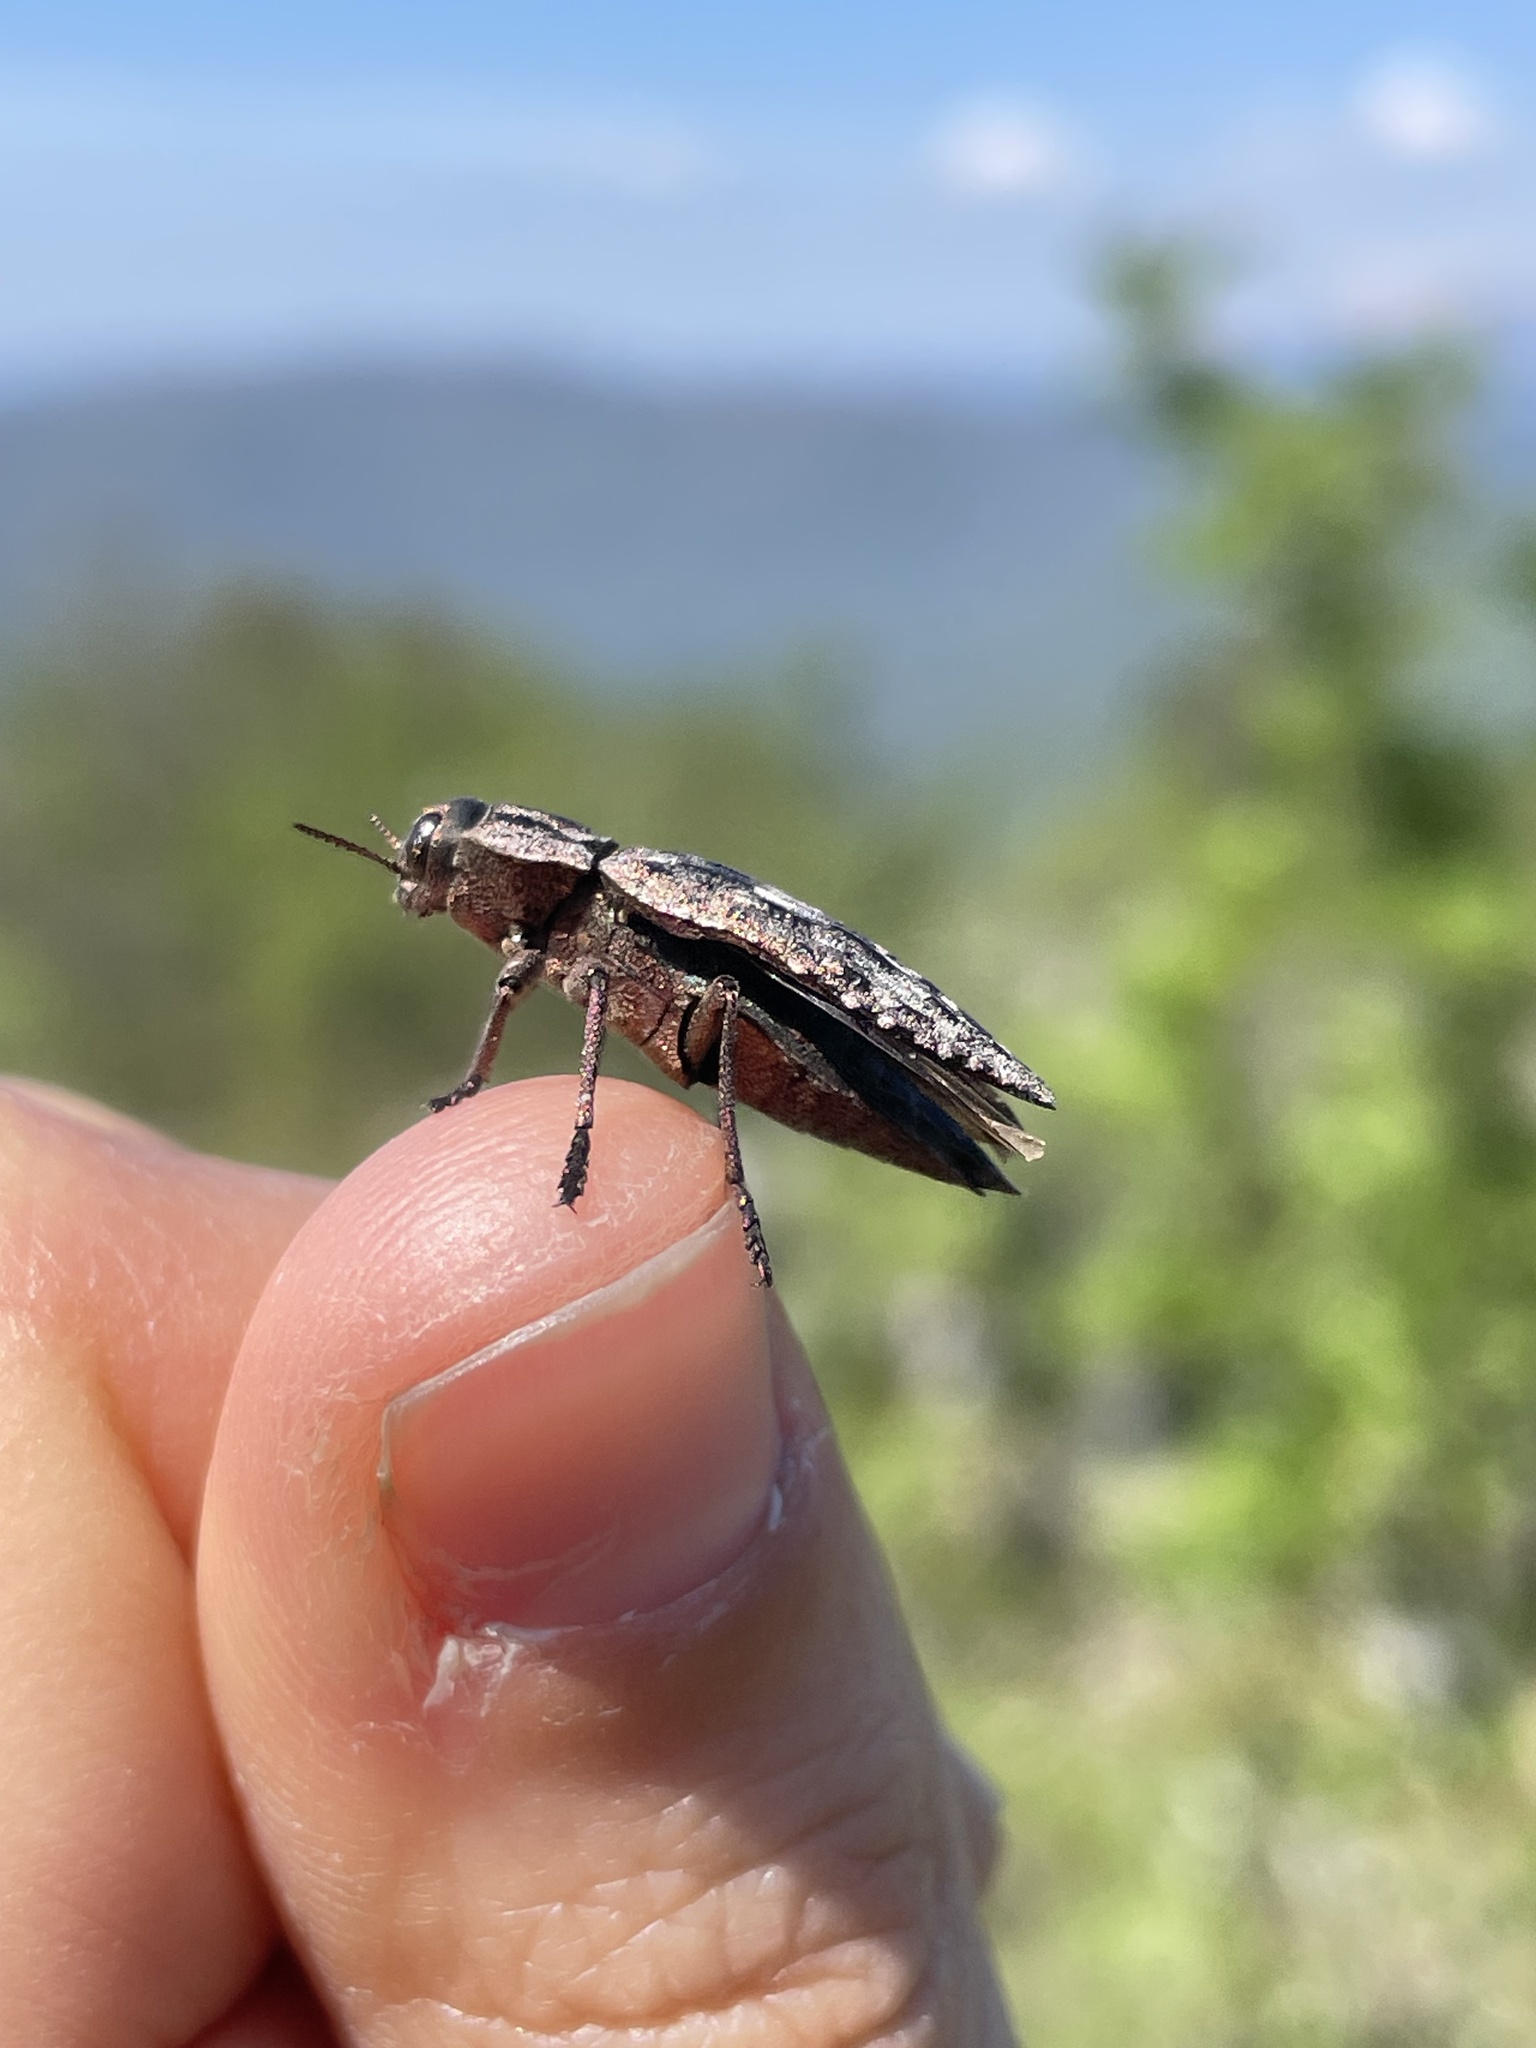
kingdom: Animalia
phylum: Arthropoda
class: Insecta
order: Coleoptera
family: Buprestidae
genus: Dicerca
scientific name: Dicerca moesta
